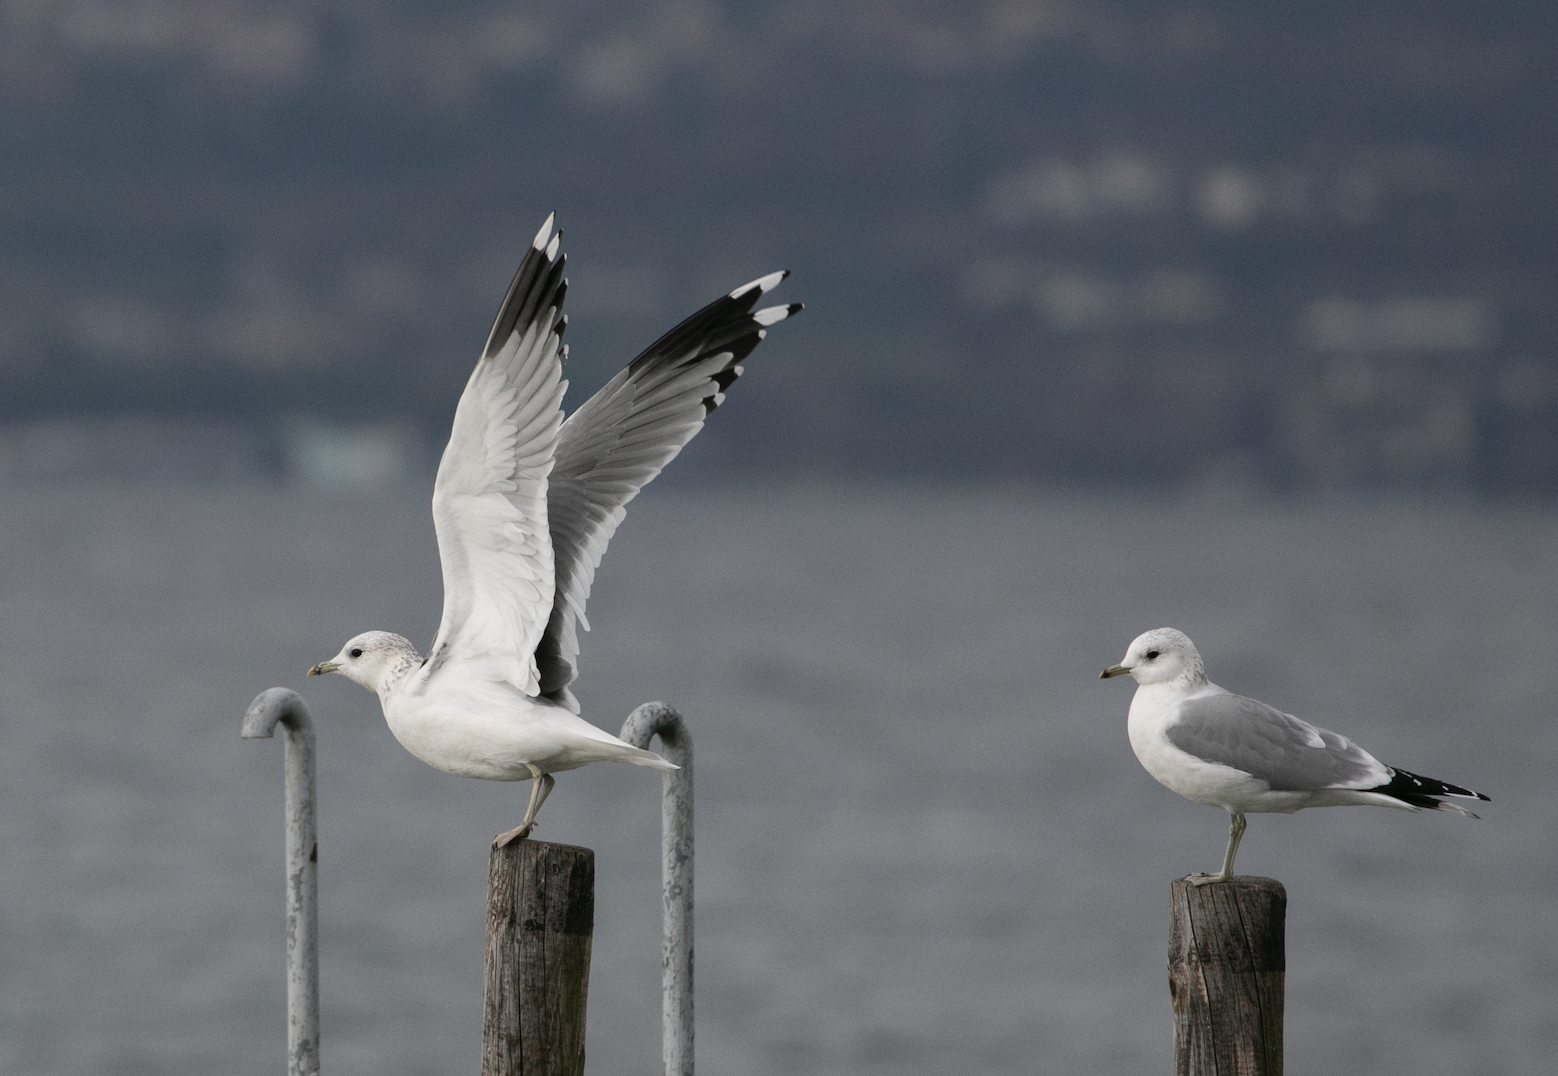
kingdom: Animalia
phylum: Chordata
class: Aves
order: Charadriiformes
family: Laridae
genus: Larus
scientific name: Larus canus
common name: Mew gull
